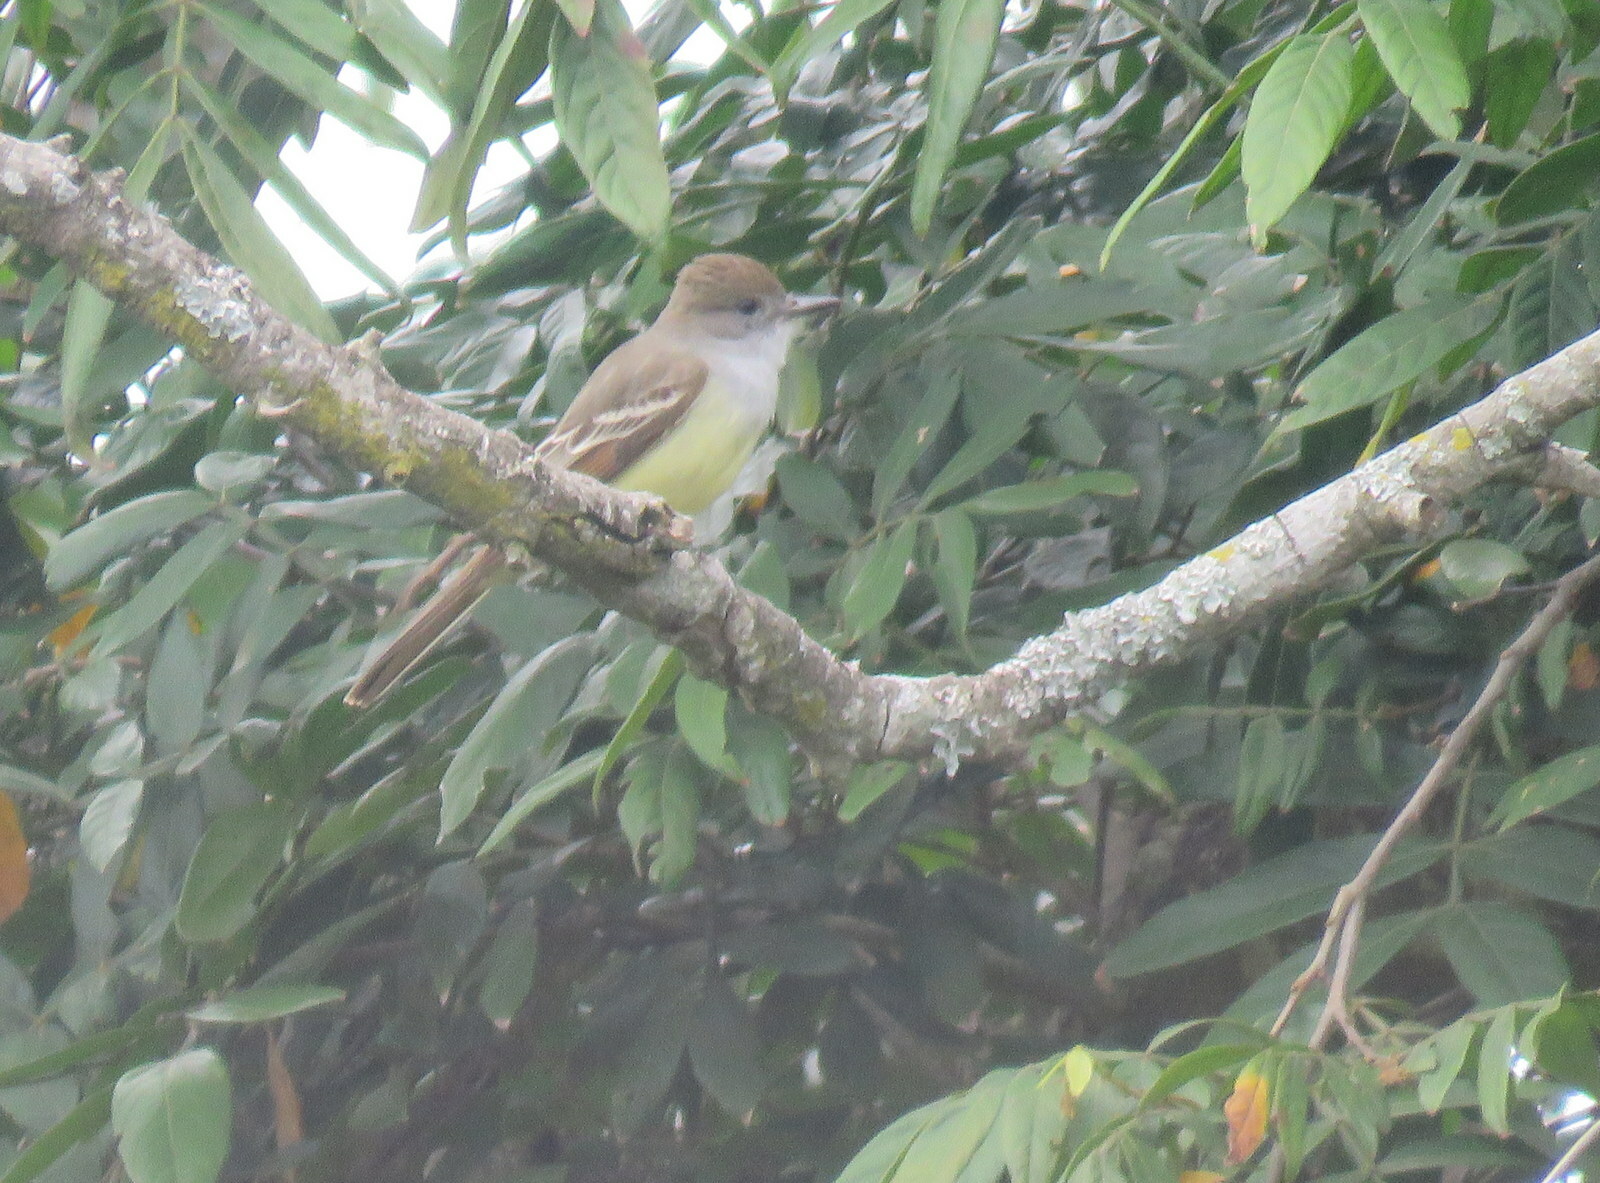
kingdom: Animalia
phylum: Chordata
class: Aves
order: Passeriformes
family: Tyrannidae
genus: Myiarchus
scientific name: Myiarchus tyrannulus
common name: Brown-crested flycatcher
